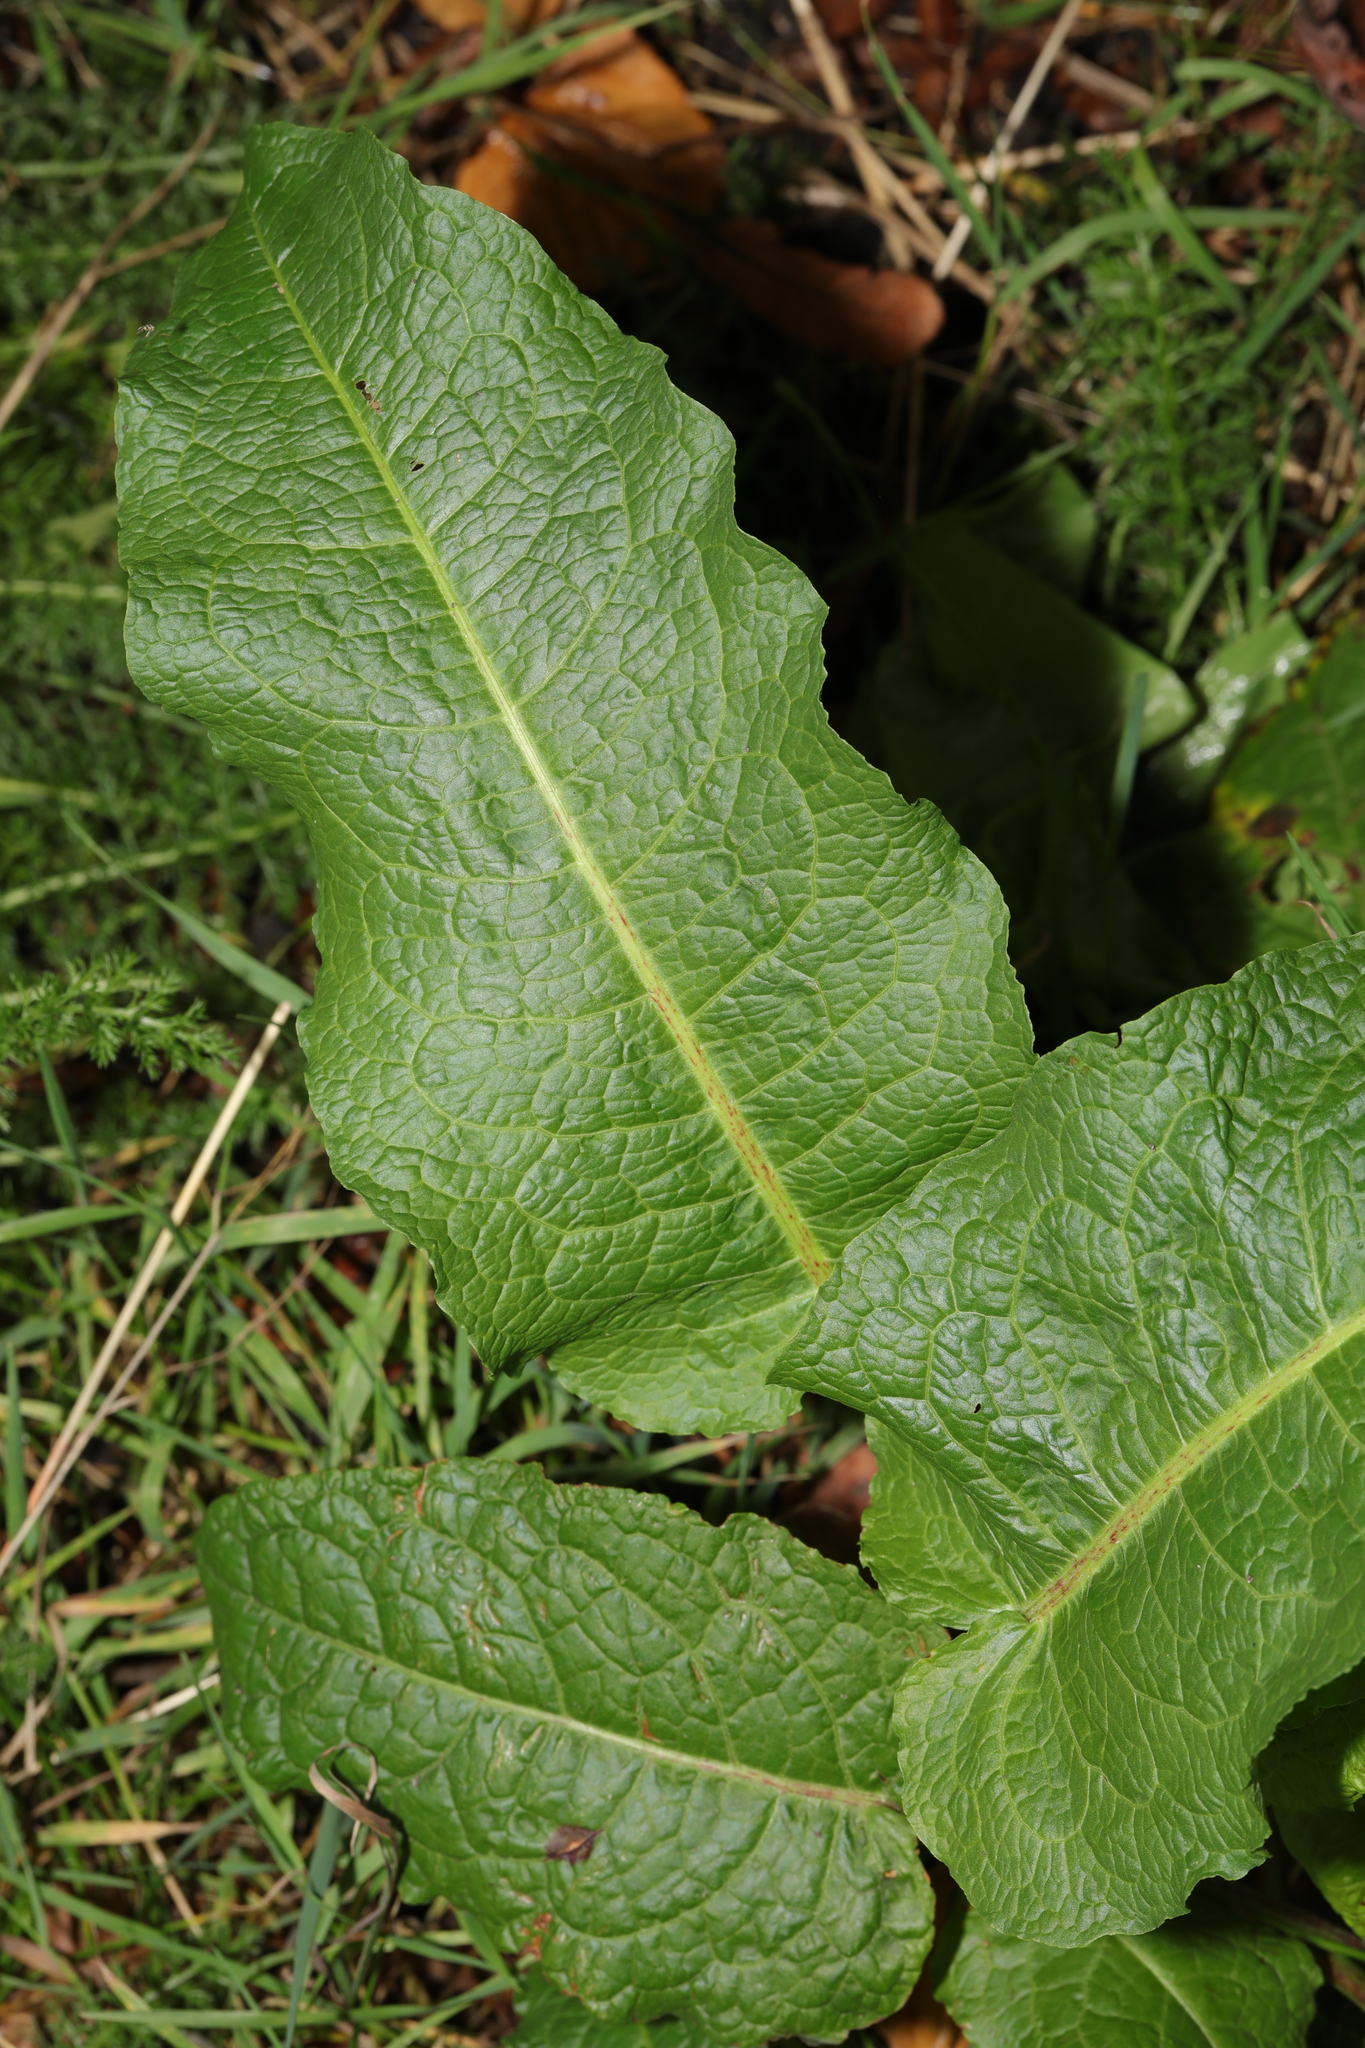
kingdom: Plantae
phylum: Tracheophyta
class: Magnoliopsida
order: Caryophyllales
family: Polygonaceae
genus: Rumex
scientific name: Rumex obtusifolius
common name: Bitter dock
